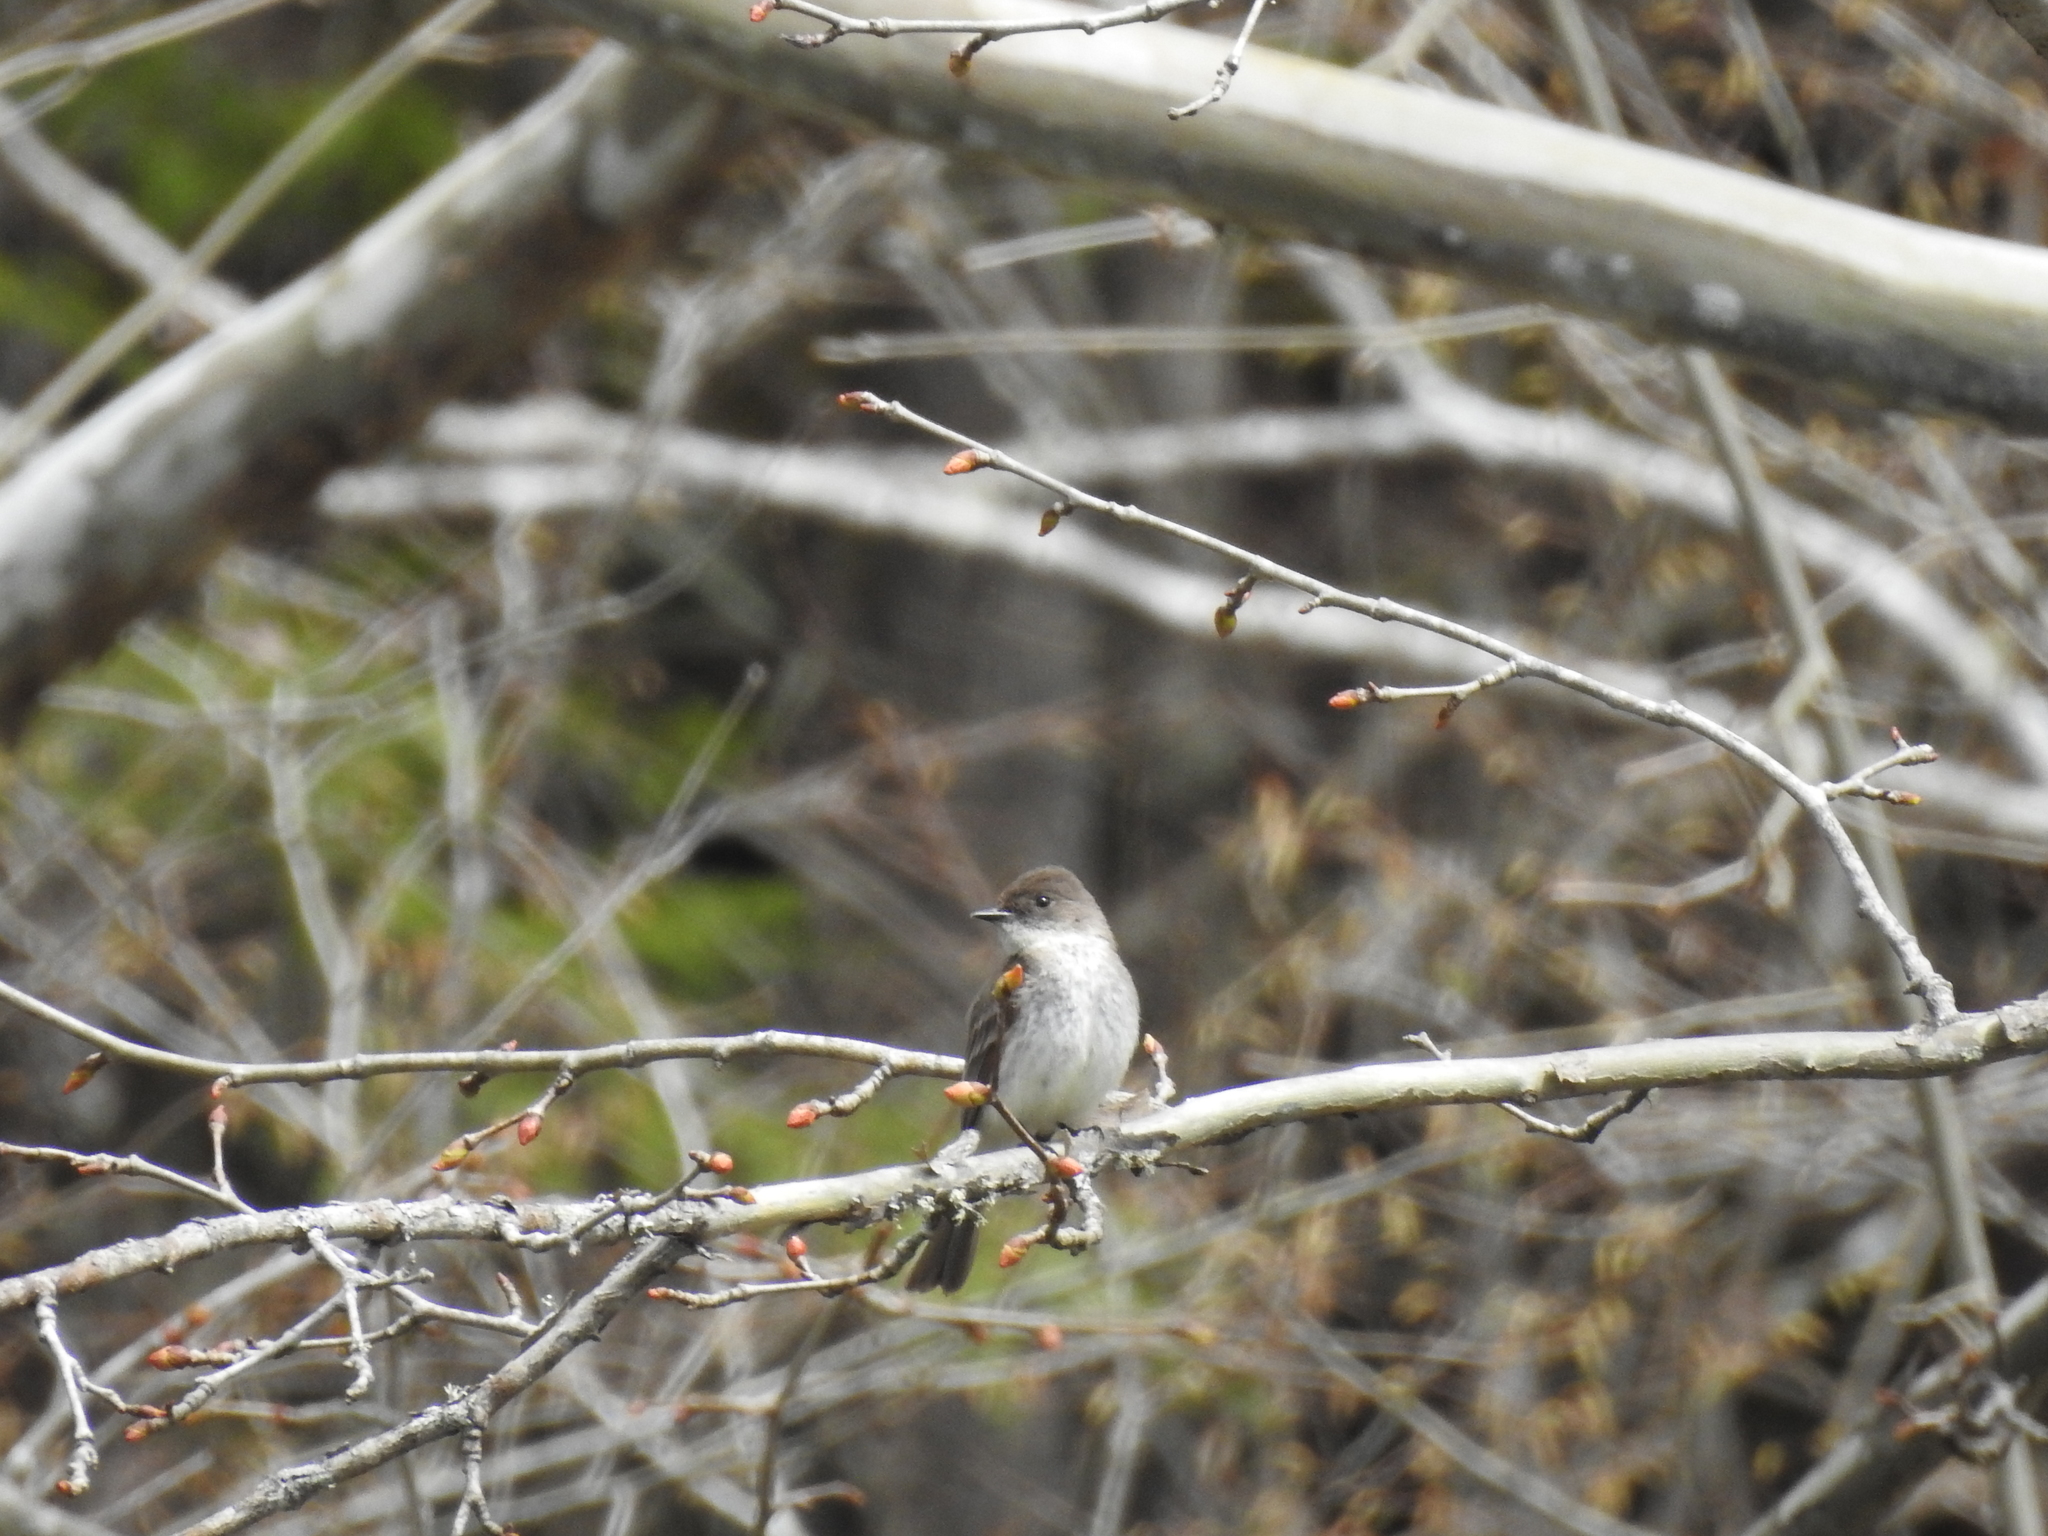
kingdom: Animalia
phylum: Chordata
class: Aves
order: Passeriformes
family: Tyrannidae
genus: Sayornis
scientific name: Sayornis phoebe
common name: Eastern phoebe
